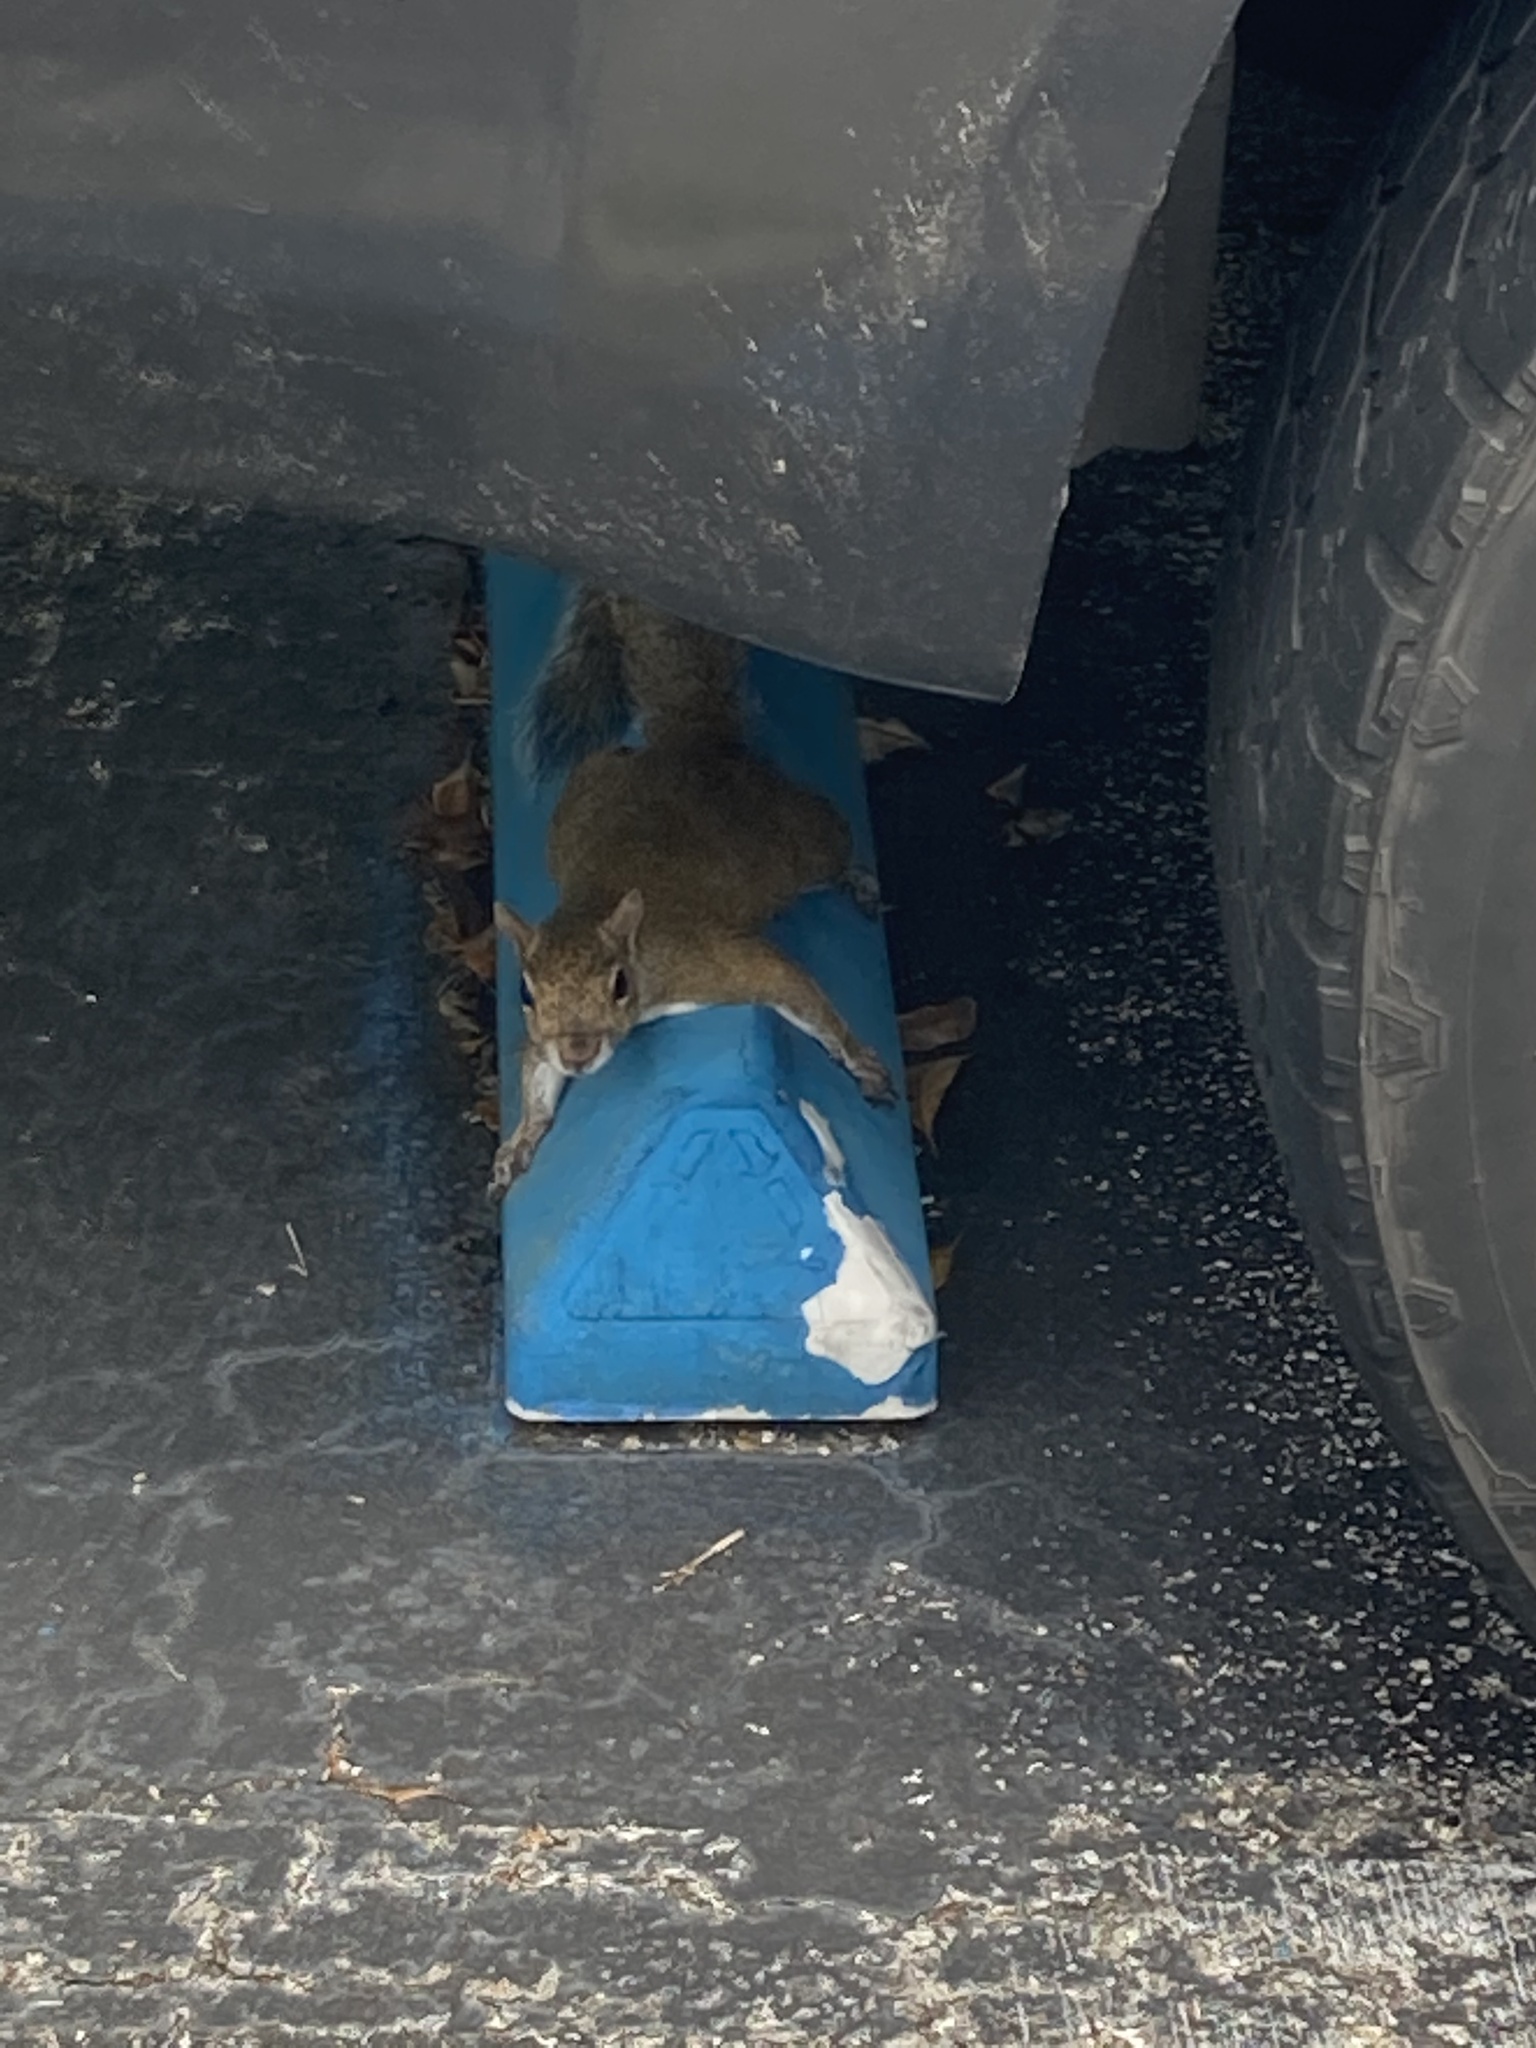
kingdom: Animalia
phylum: Chordata
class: Mammalia
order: Rodentia
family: Sciuridae
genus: Sciurus
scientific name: Sciurus carolinensis
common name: Eastern gray squirrel
